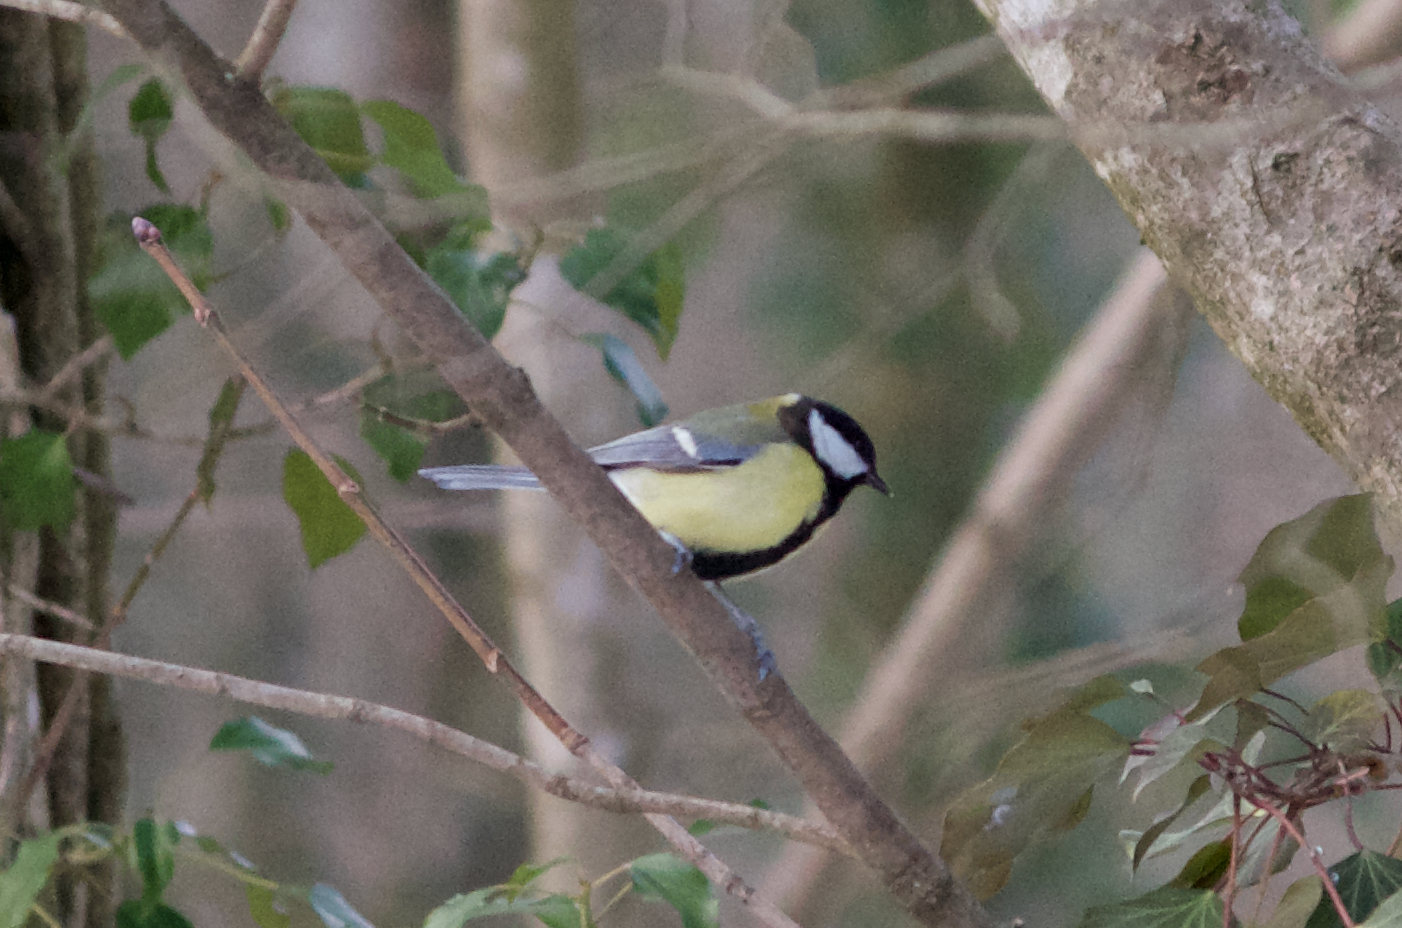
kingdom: Animalia
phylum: Chordata
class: Aves
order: Passeriformes
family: Paridae
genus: Parus
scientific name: Parus major
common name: Great tit
